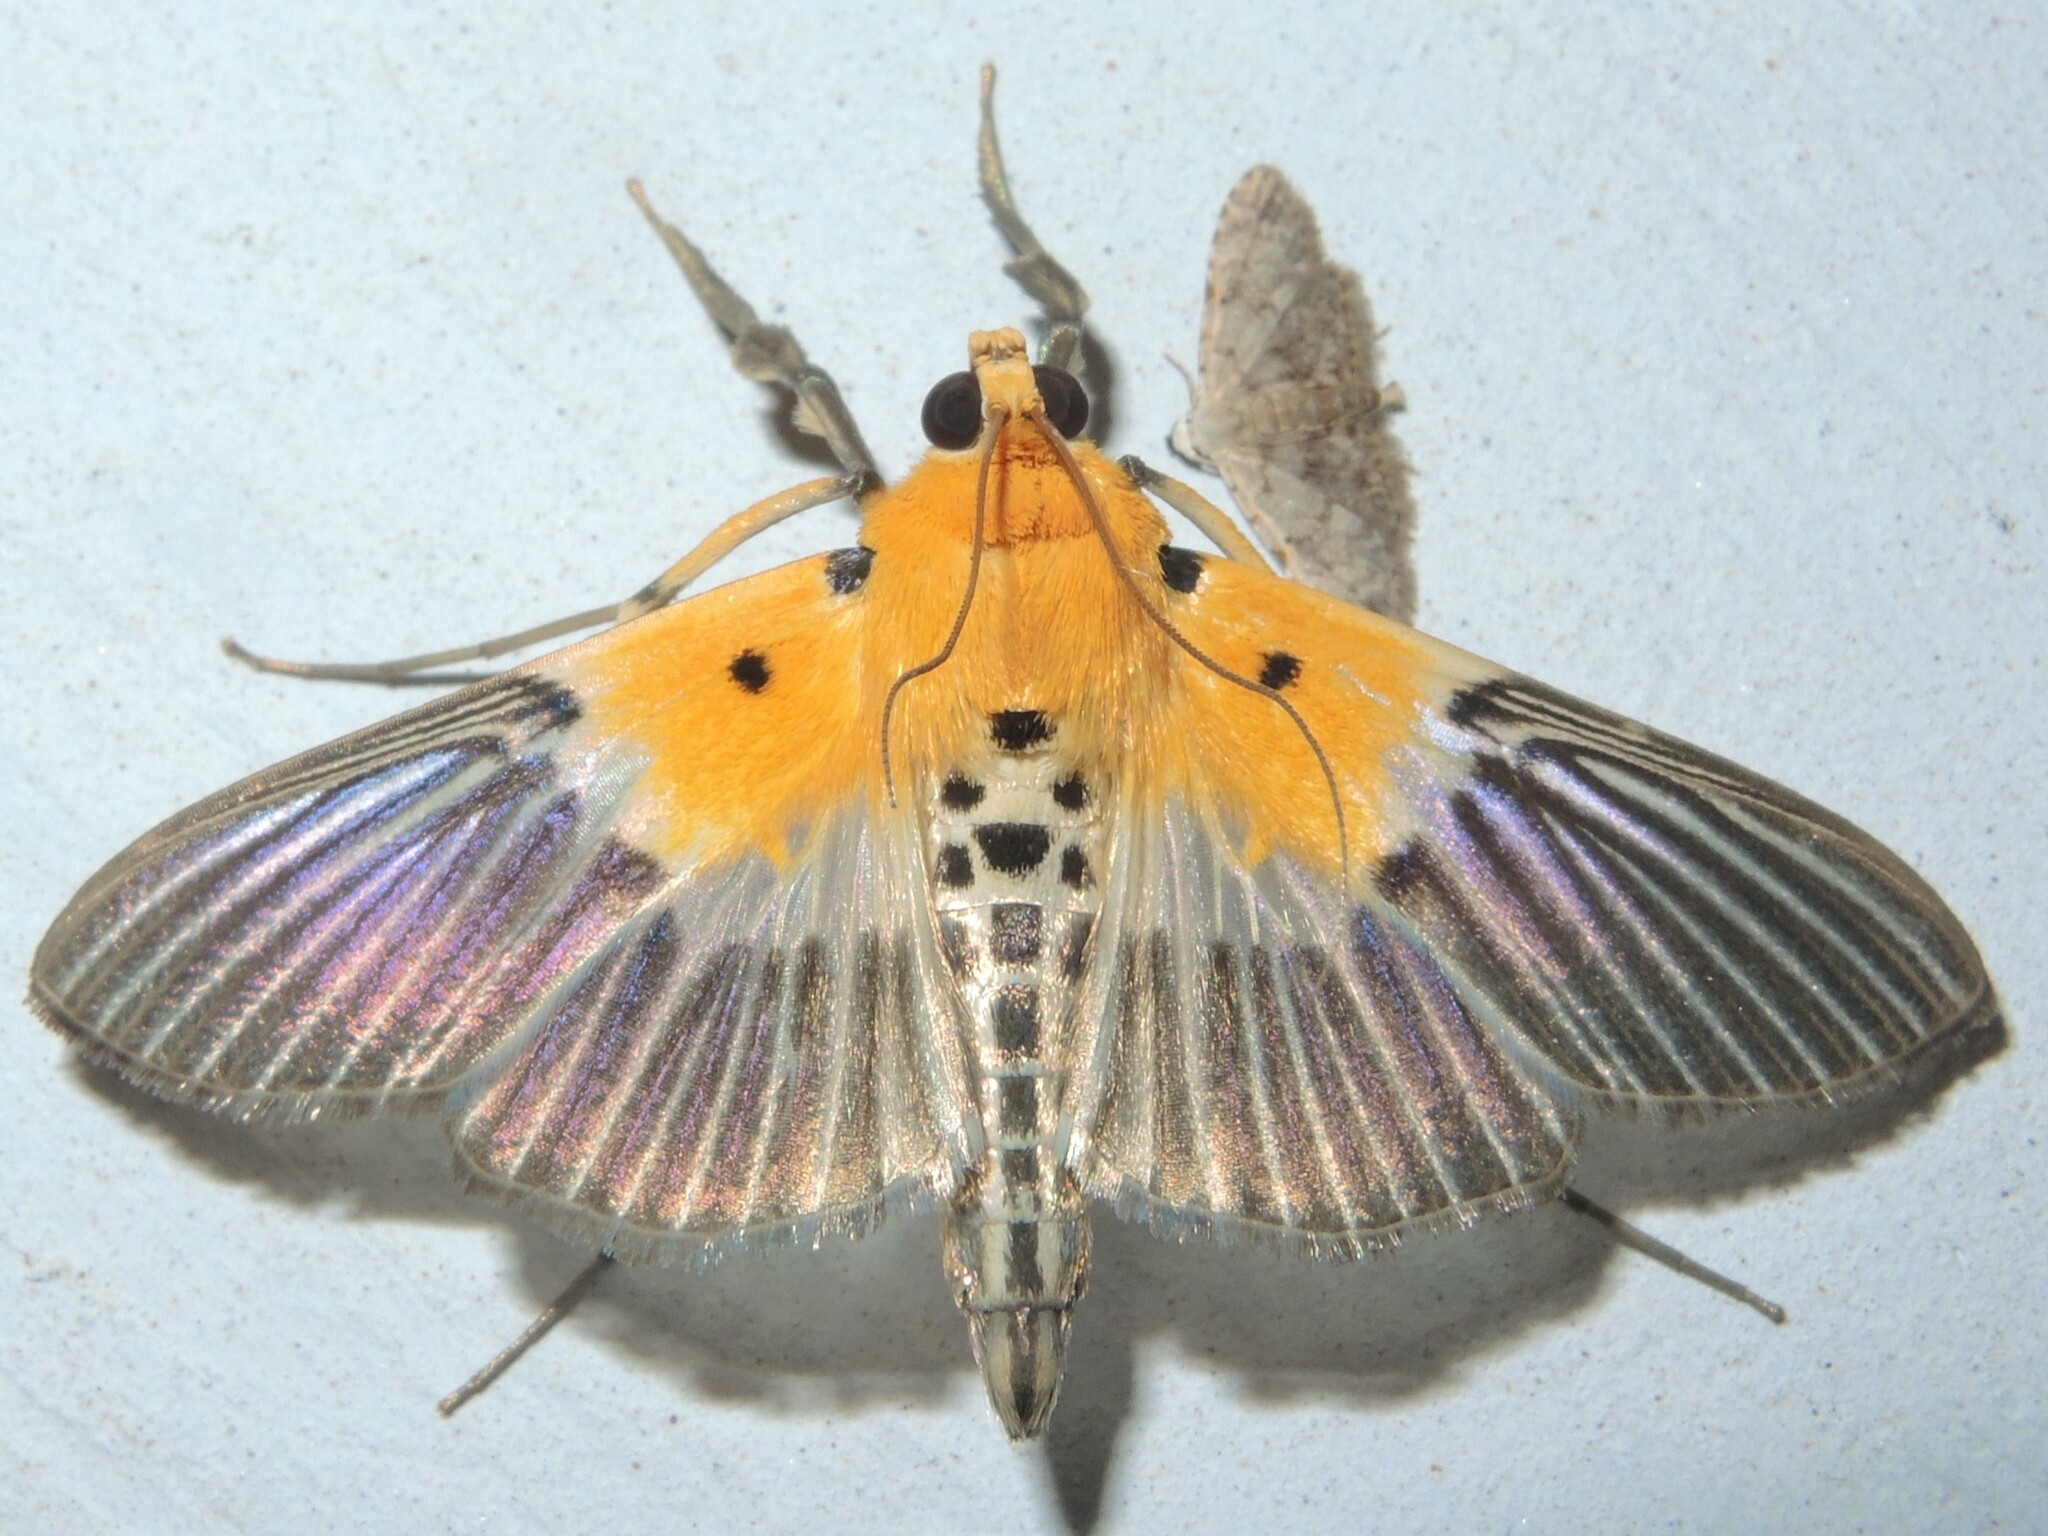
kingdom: Animalia
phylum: Arthropoda
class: Insecta
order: Lepidoptera
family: Crambidae
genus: Nevrina
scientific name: Nevrina procopia
